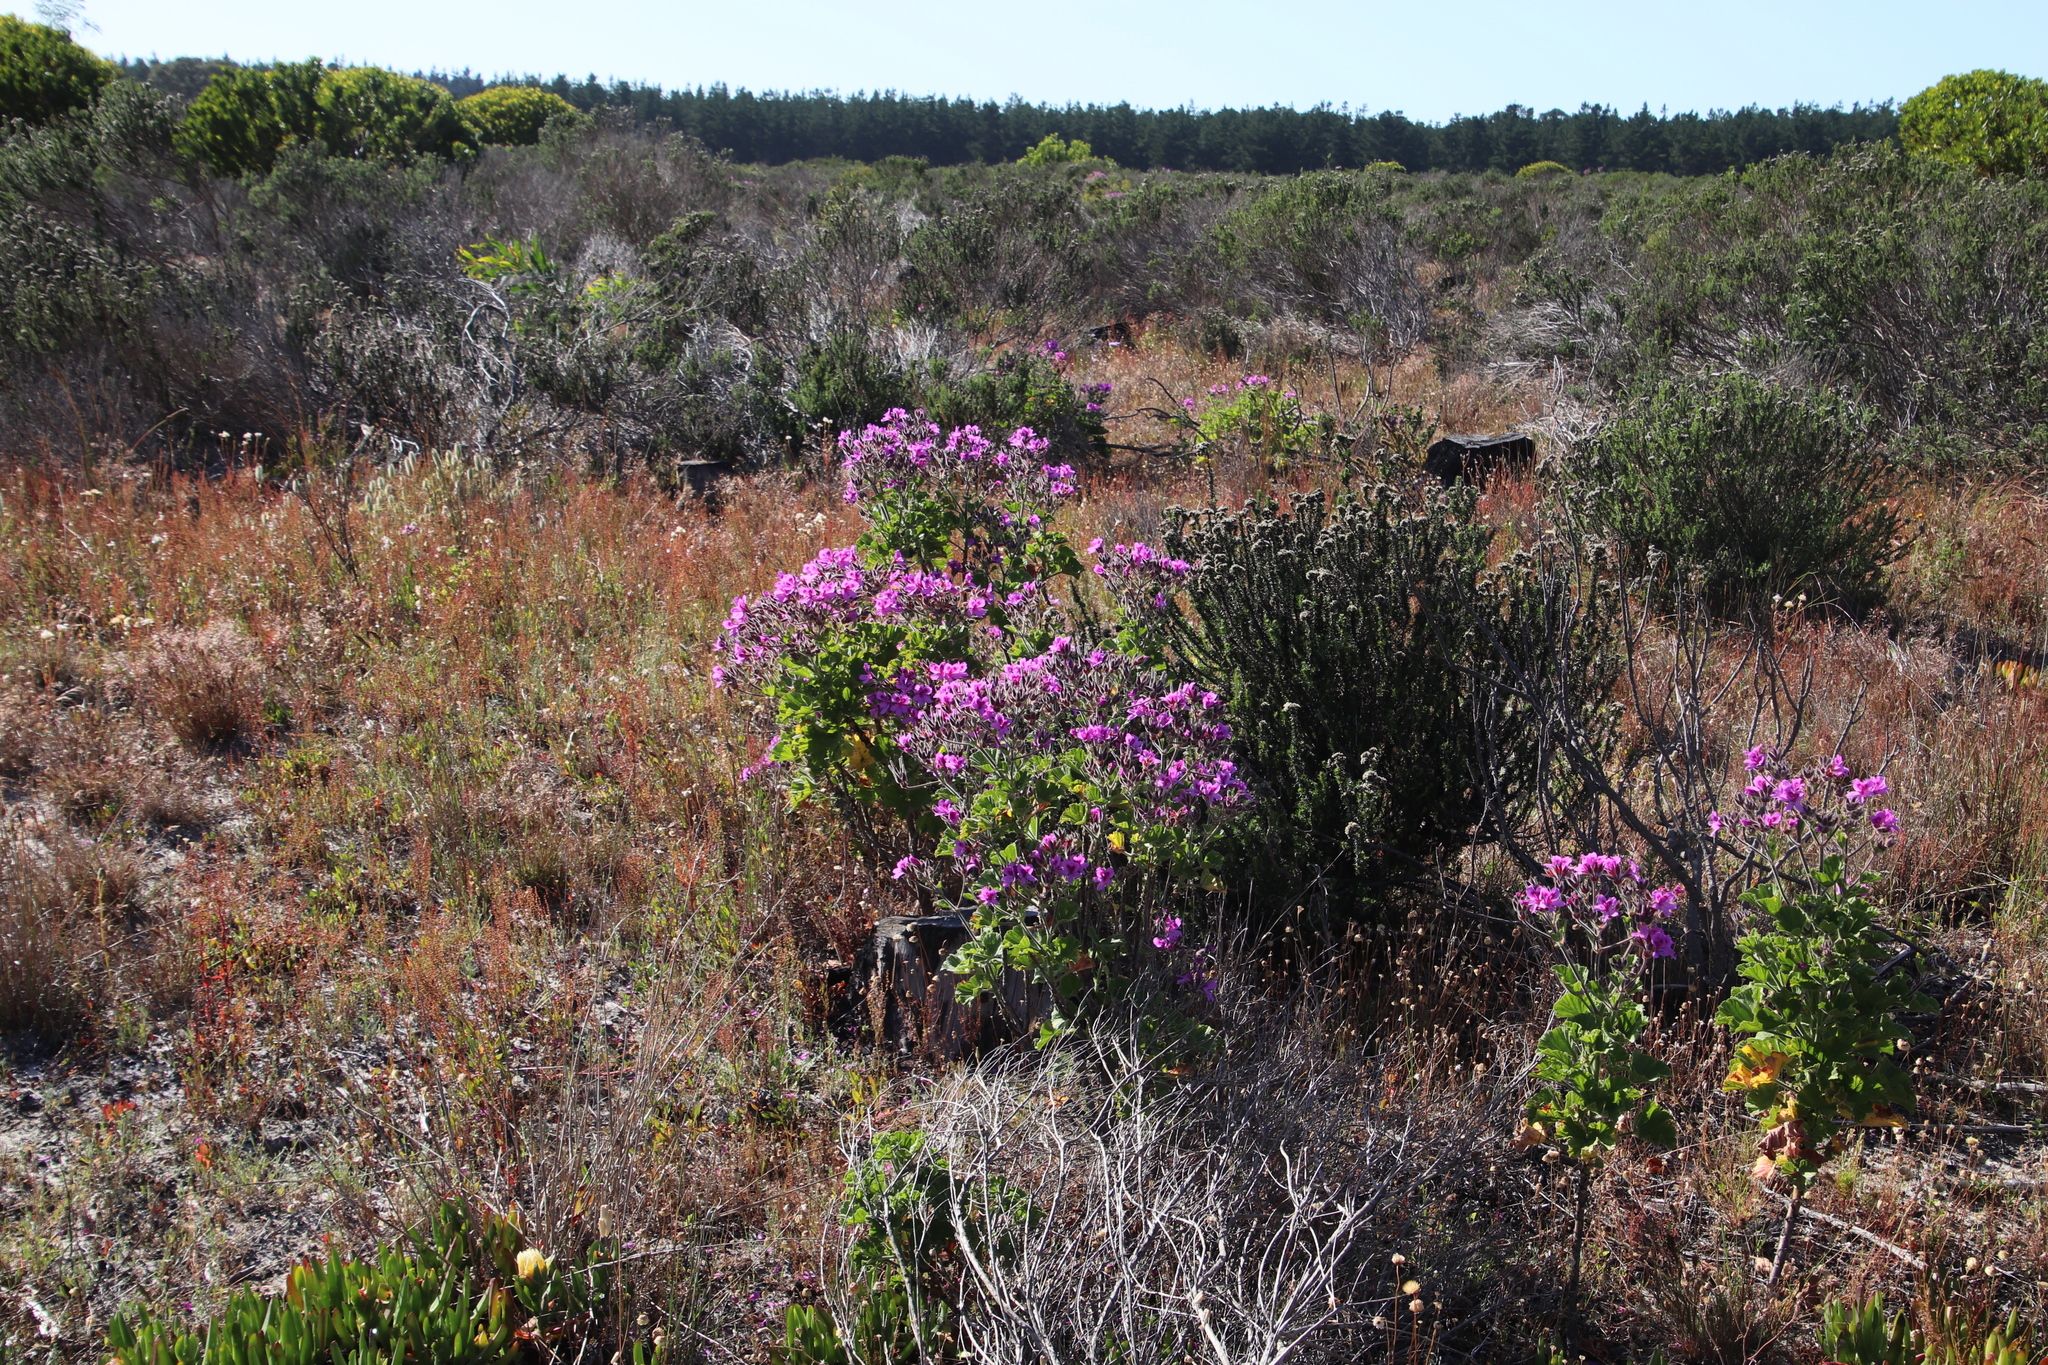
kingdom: Plantae
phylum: Tracheophyta
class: Magnoliopsida
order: Geraniales
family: Geraniaceae
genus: Pelargonium
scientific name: Pelargonium cucullatum
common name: Tree pelargonium
